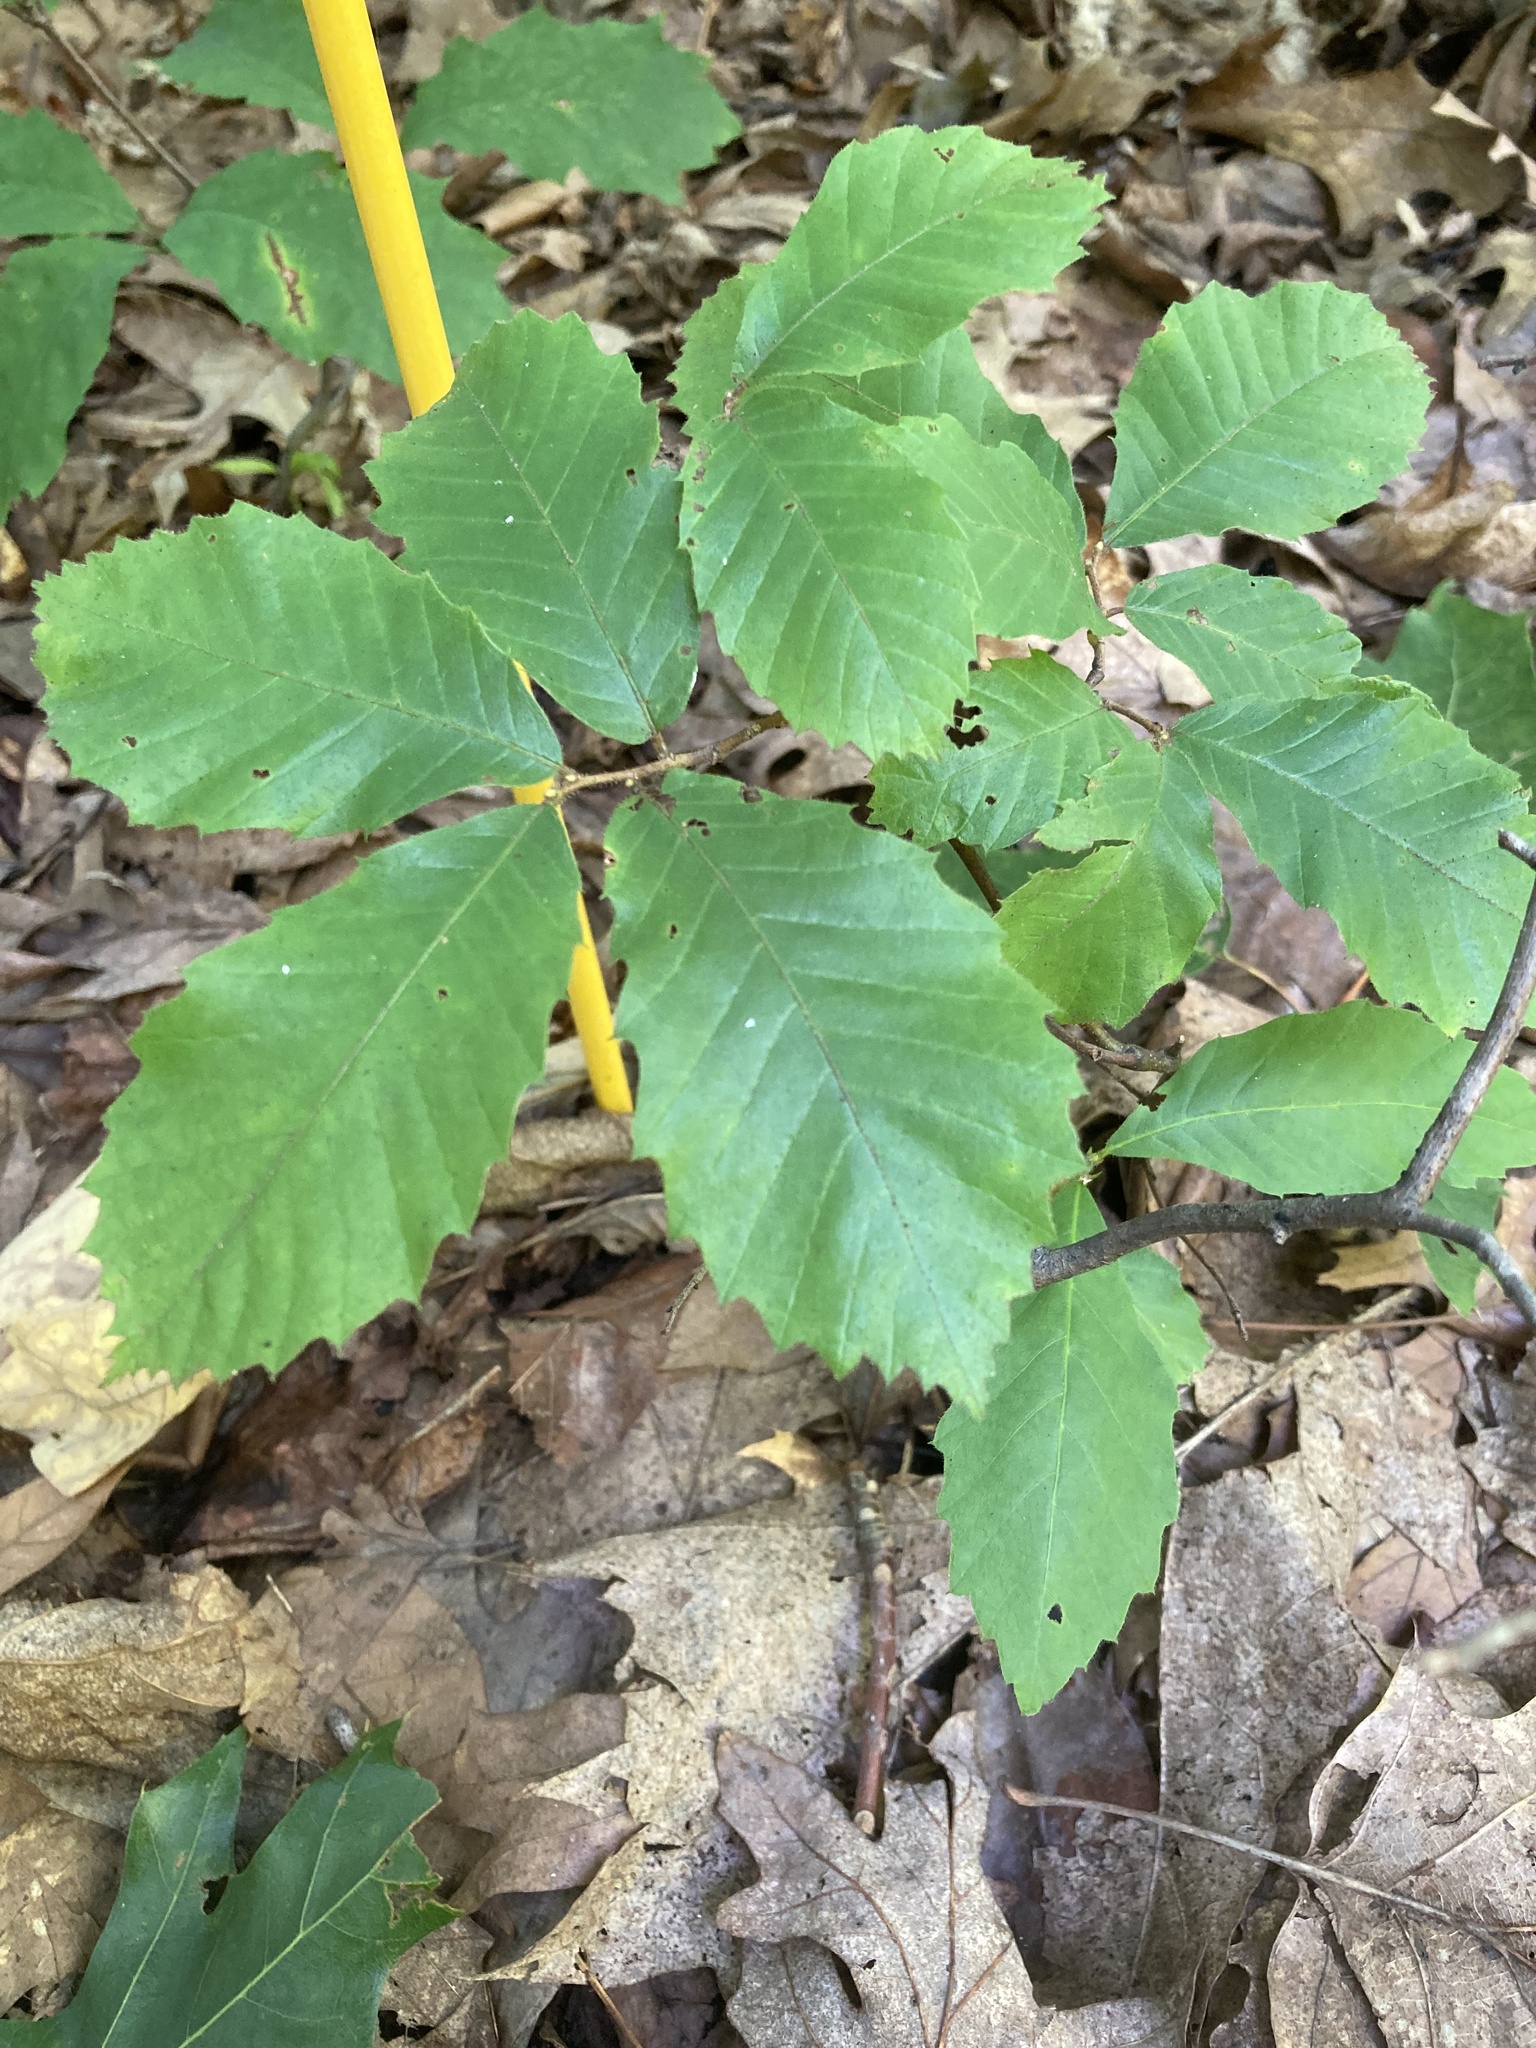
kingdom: Plantae
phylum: Tracheophyta
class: Magnoliopsida
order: Fagales
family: Fagaceae
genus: Castanea
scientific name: Castanea pumila
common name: Chinkapin
